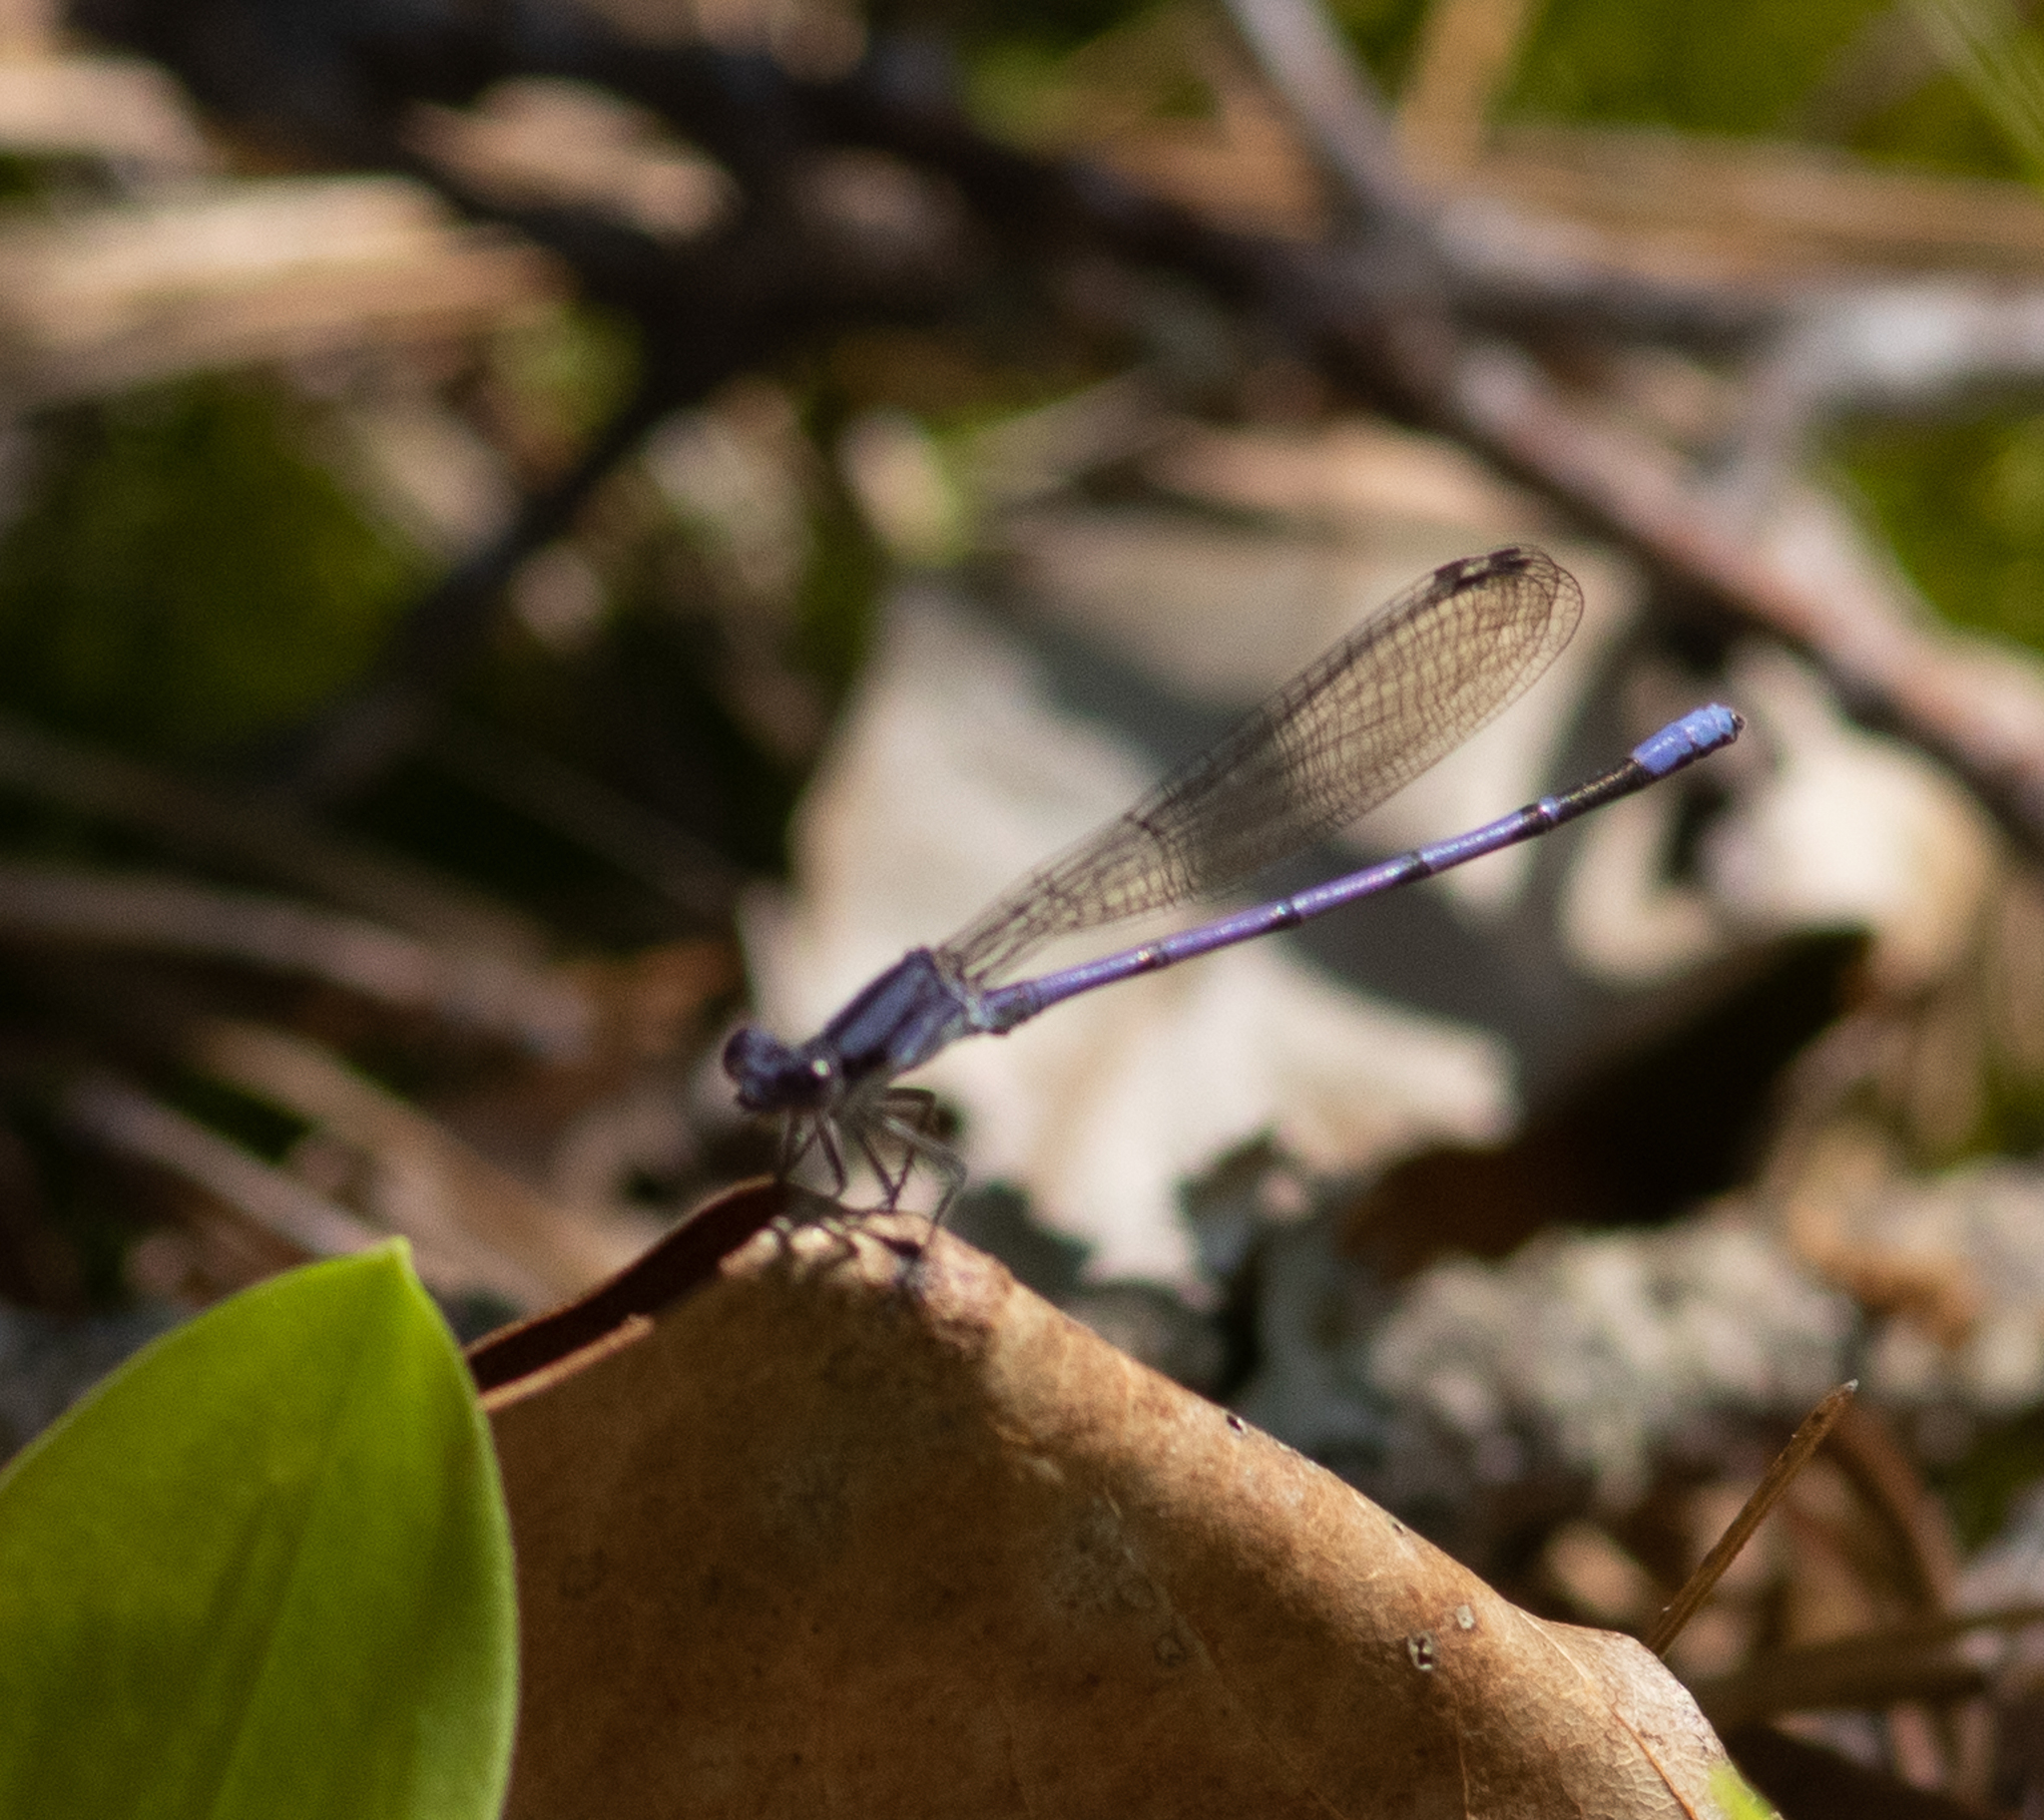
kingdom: Animalia
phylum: Arthropoda
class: Insecta
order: Odonata
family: Coenagrionidae
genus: Argia
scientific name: Argia fumipennis
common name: Variable dancer
